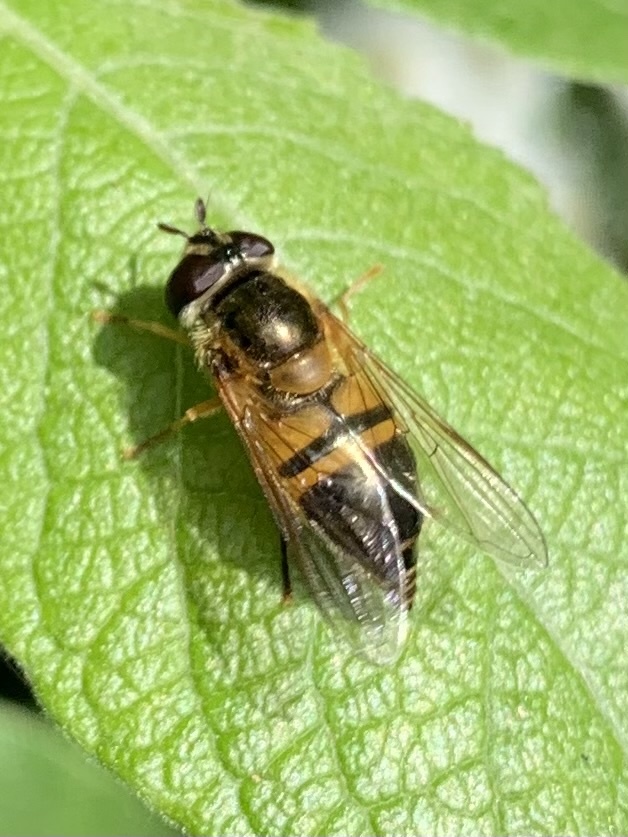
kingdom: Animalia
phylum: Arthropoda
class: Insecta
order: Diptera
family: Syrphidae
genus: Epistrophe
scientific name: Epistrophe eligans
